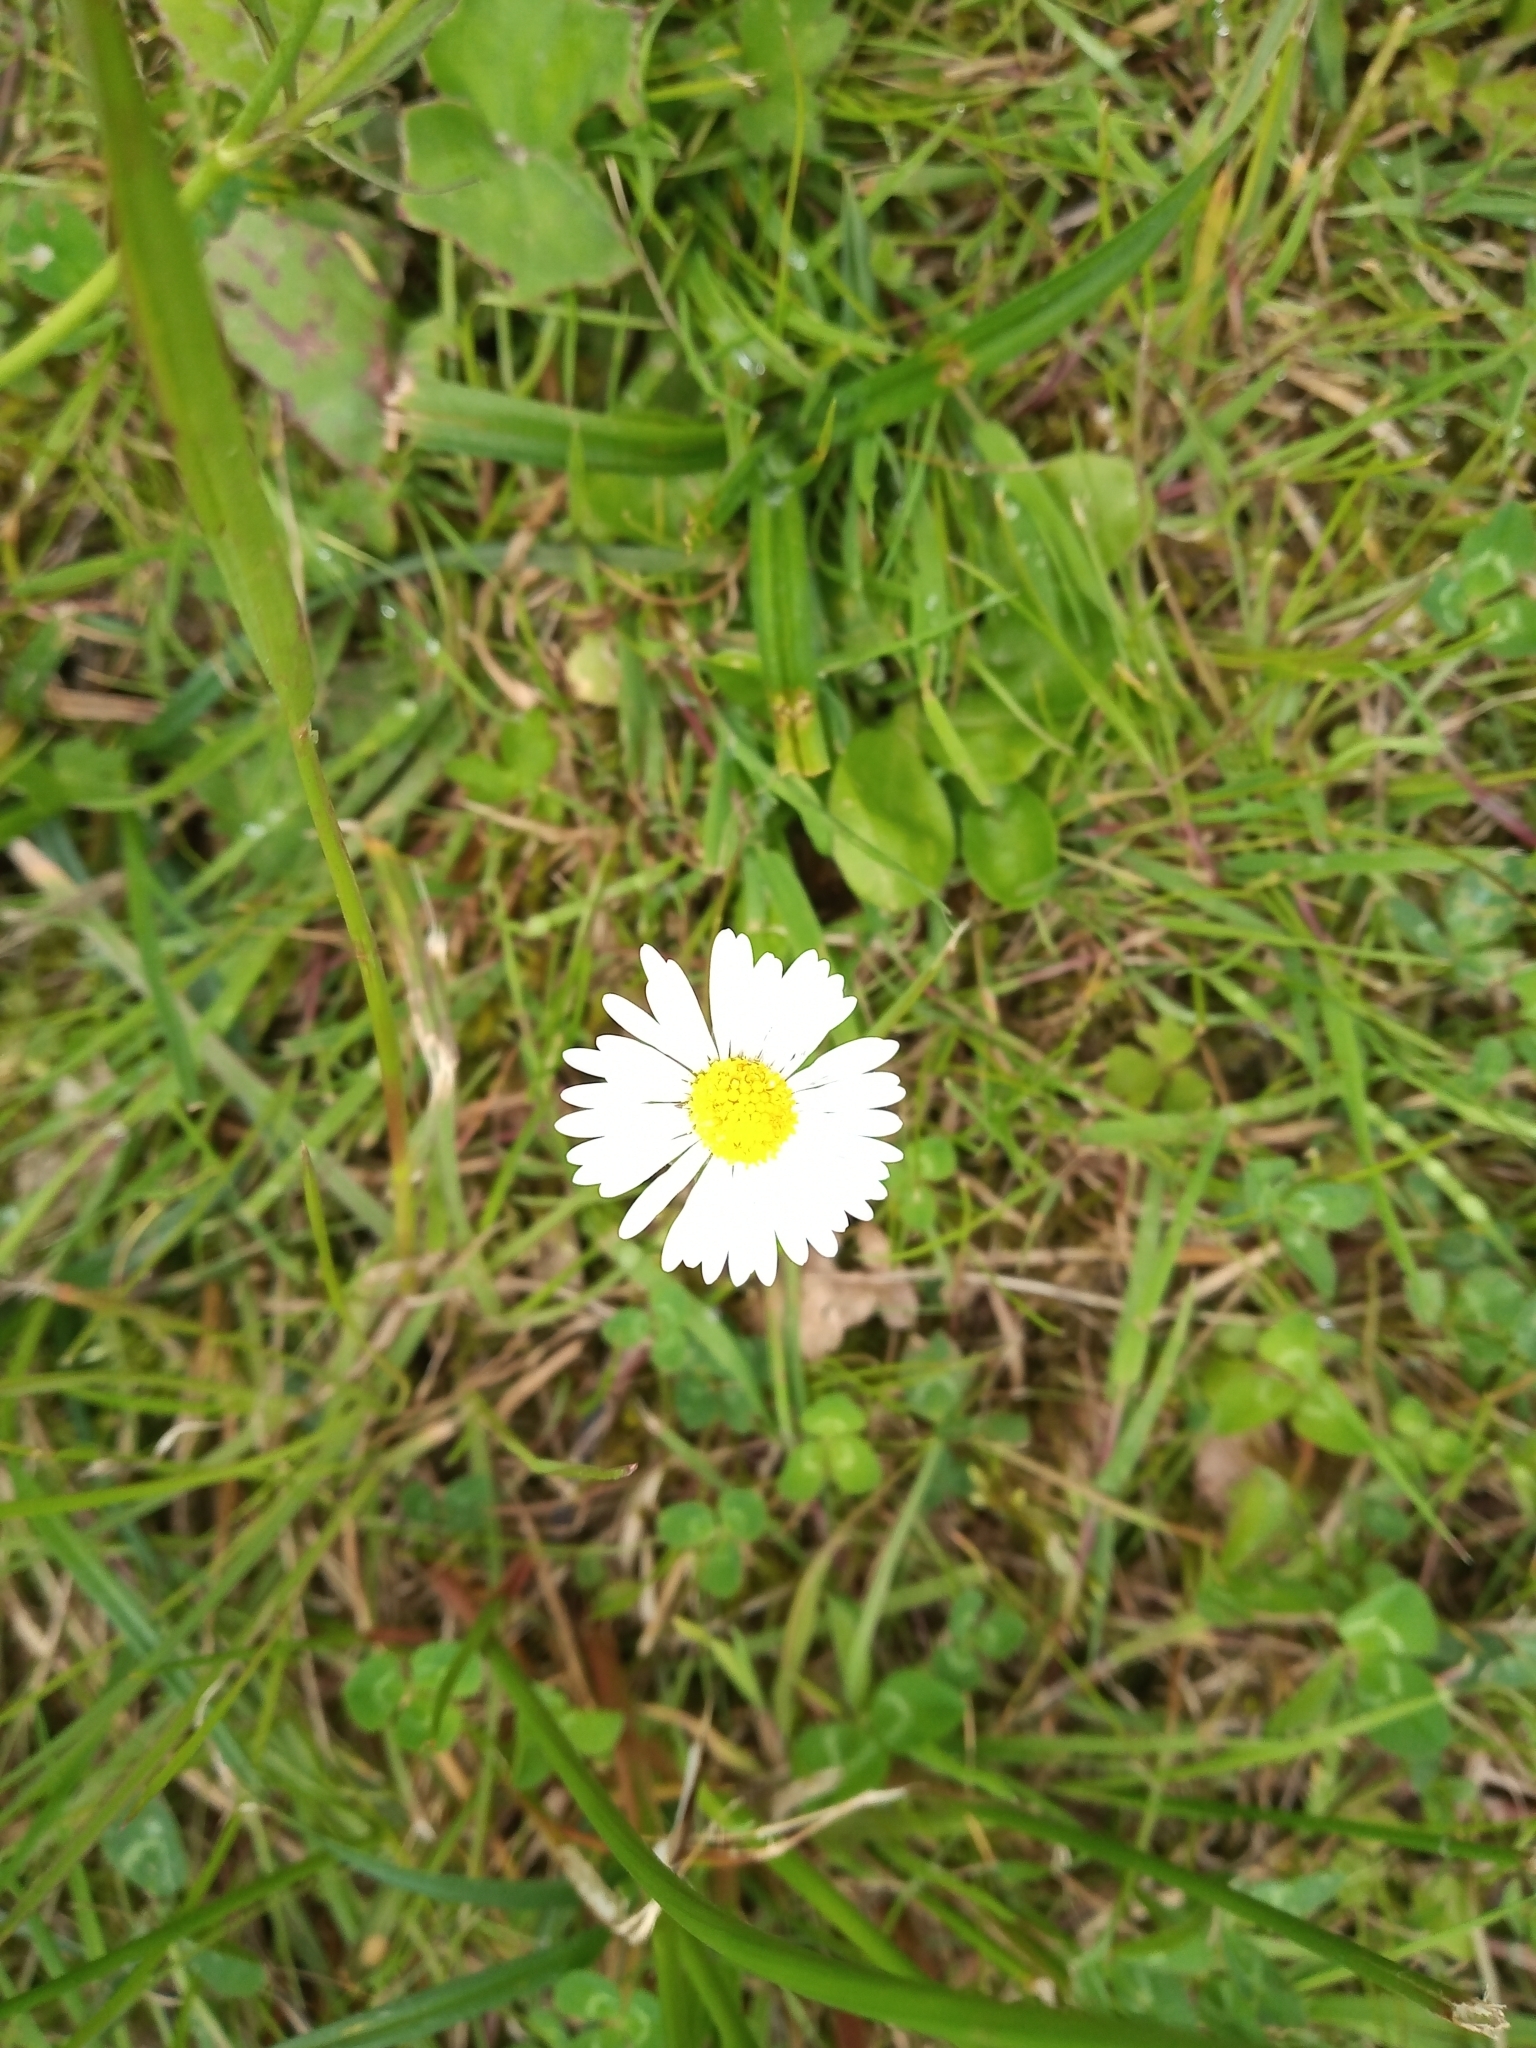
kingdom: Plantae
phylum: Tracheophyta
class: Magnoliopsida
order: Asterales
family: Asteraceae
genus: Bellis
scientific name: Bellis perennis
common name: Lawndaisy
